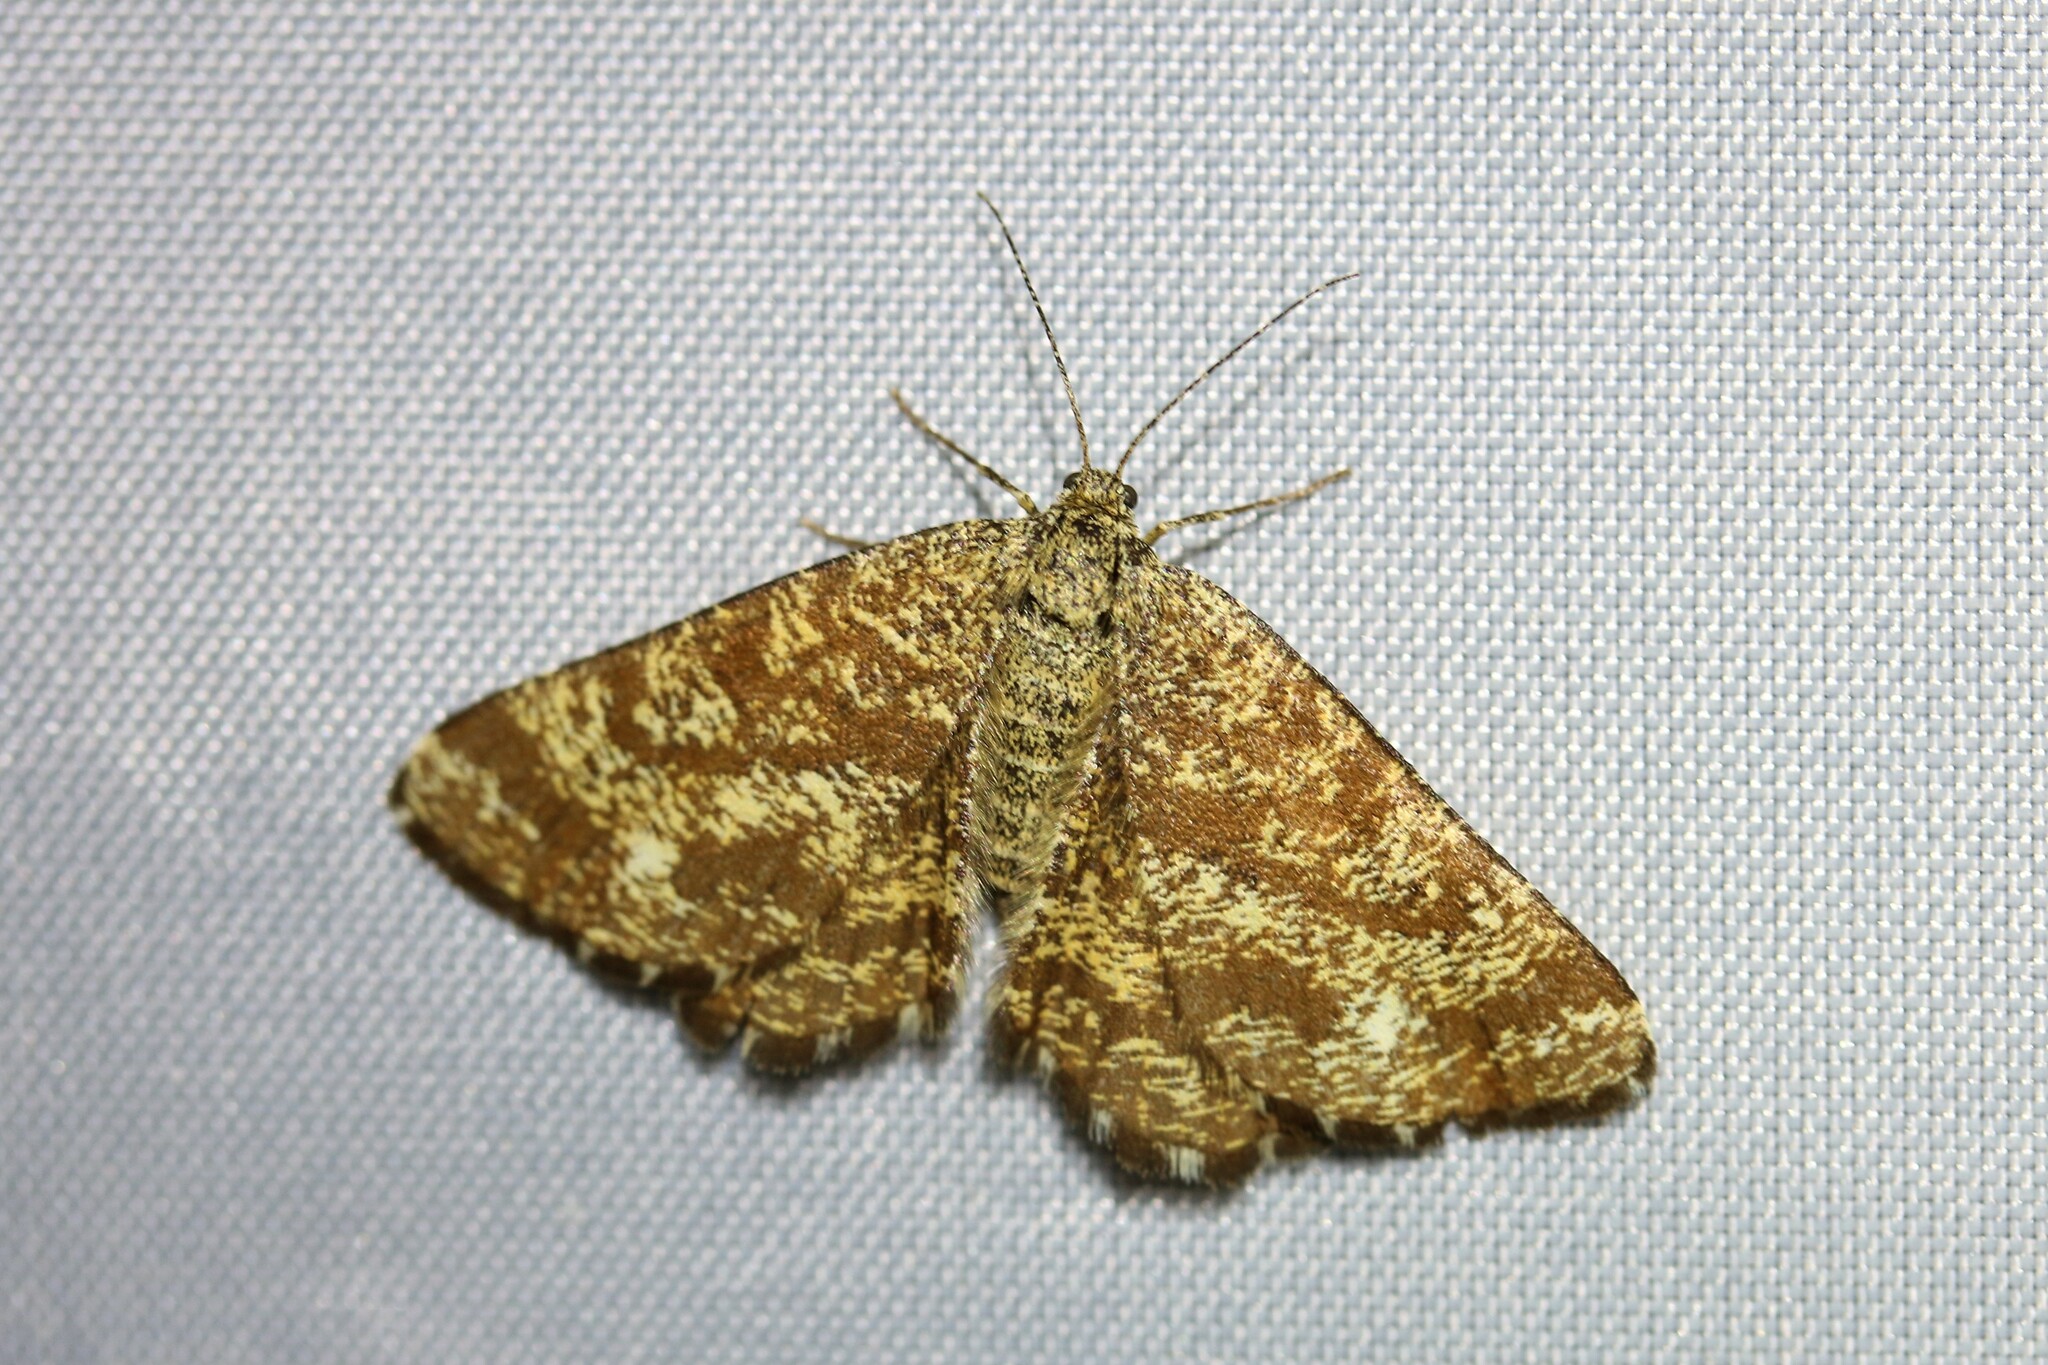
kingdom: Animalia
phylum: Arthropoda
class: Insecta
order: Lepidoptera
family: Geometridae
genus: Ematurga
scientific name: Ematurga atomaria
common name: Common heath
